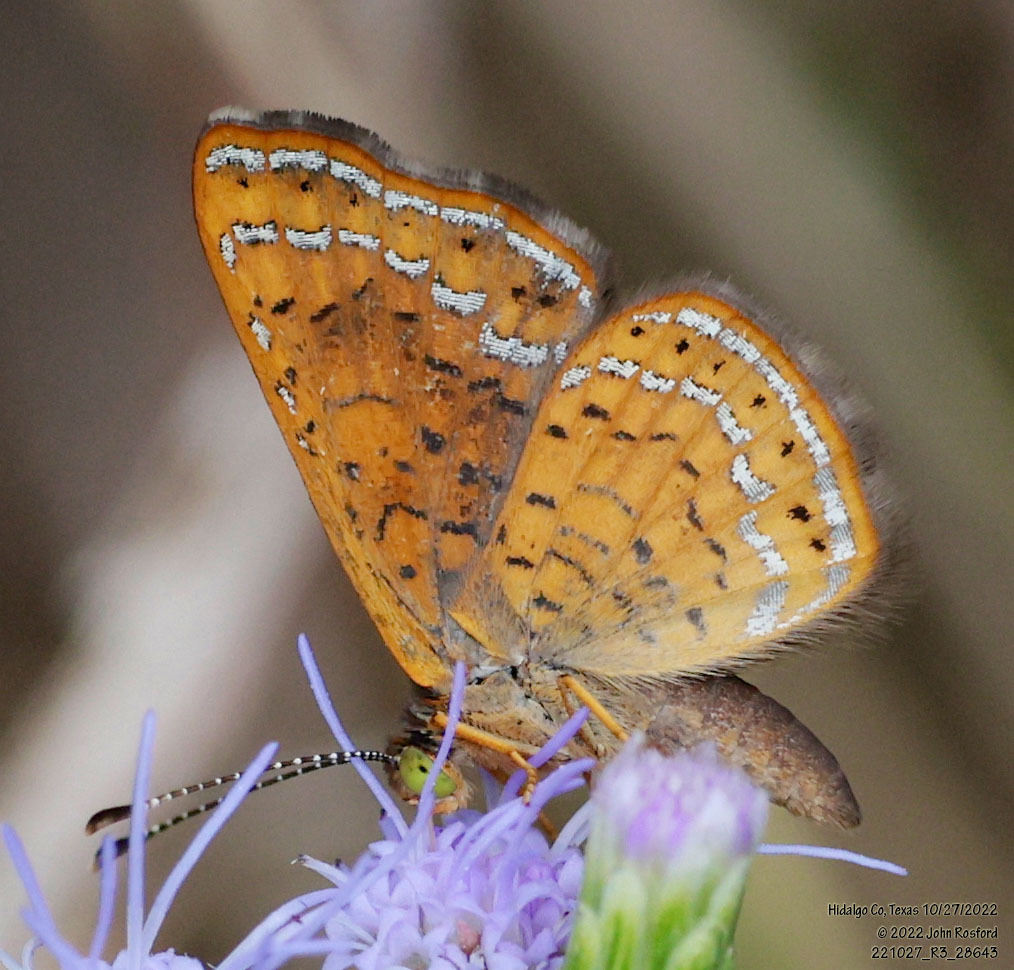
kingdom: Animalia
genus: Calephelis
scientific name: Calephelis nemesis
